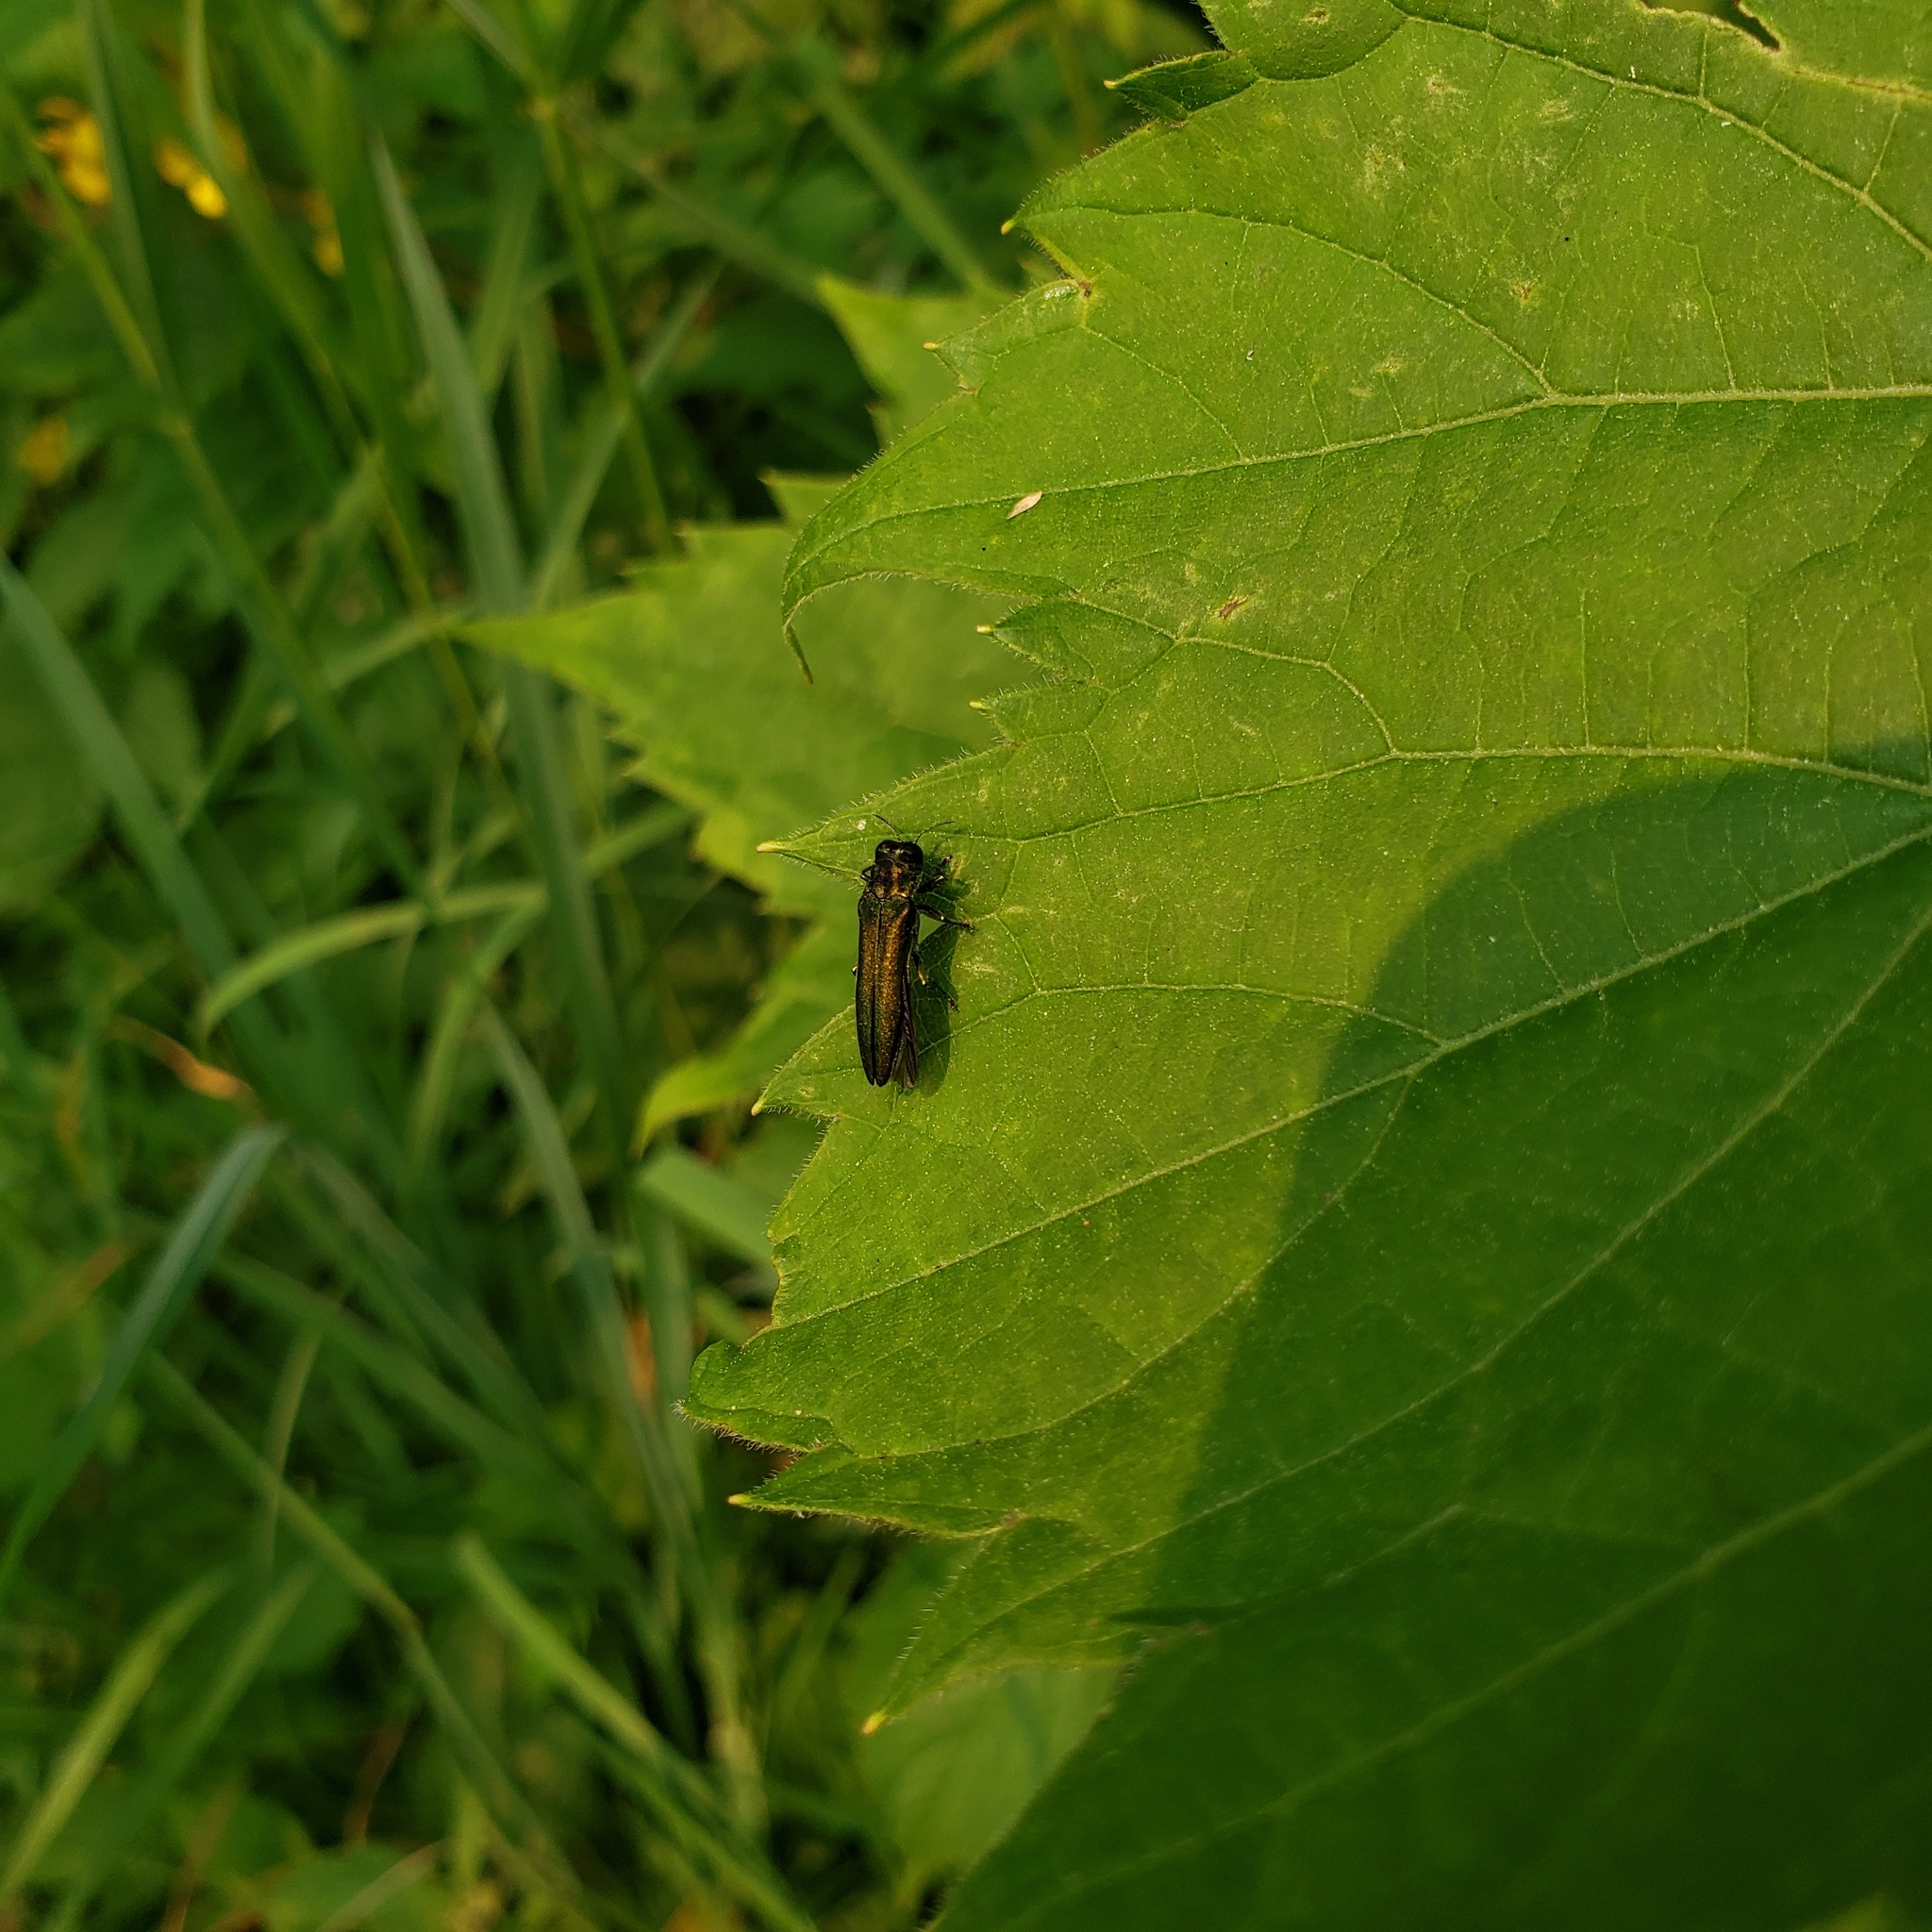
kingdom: Animalia
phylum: Arthropoda
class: Insecta
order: Coleoptera
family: Buprestidae
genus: Agrilus
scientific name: Agrilus planipennis
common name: Emerald ash borer
